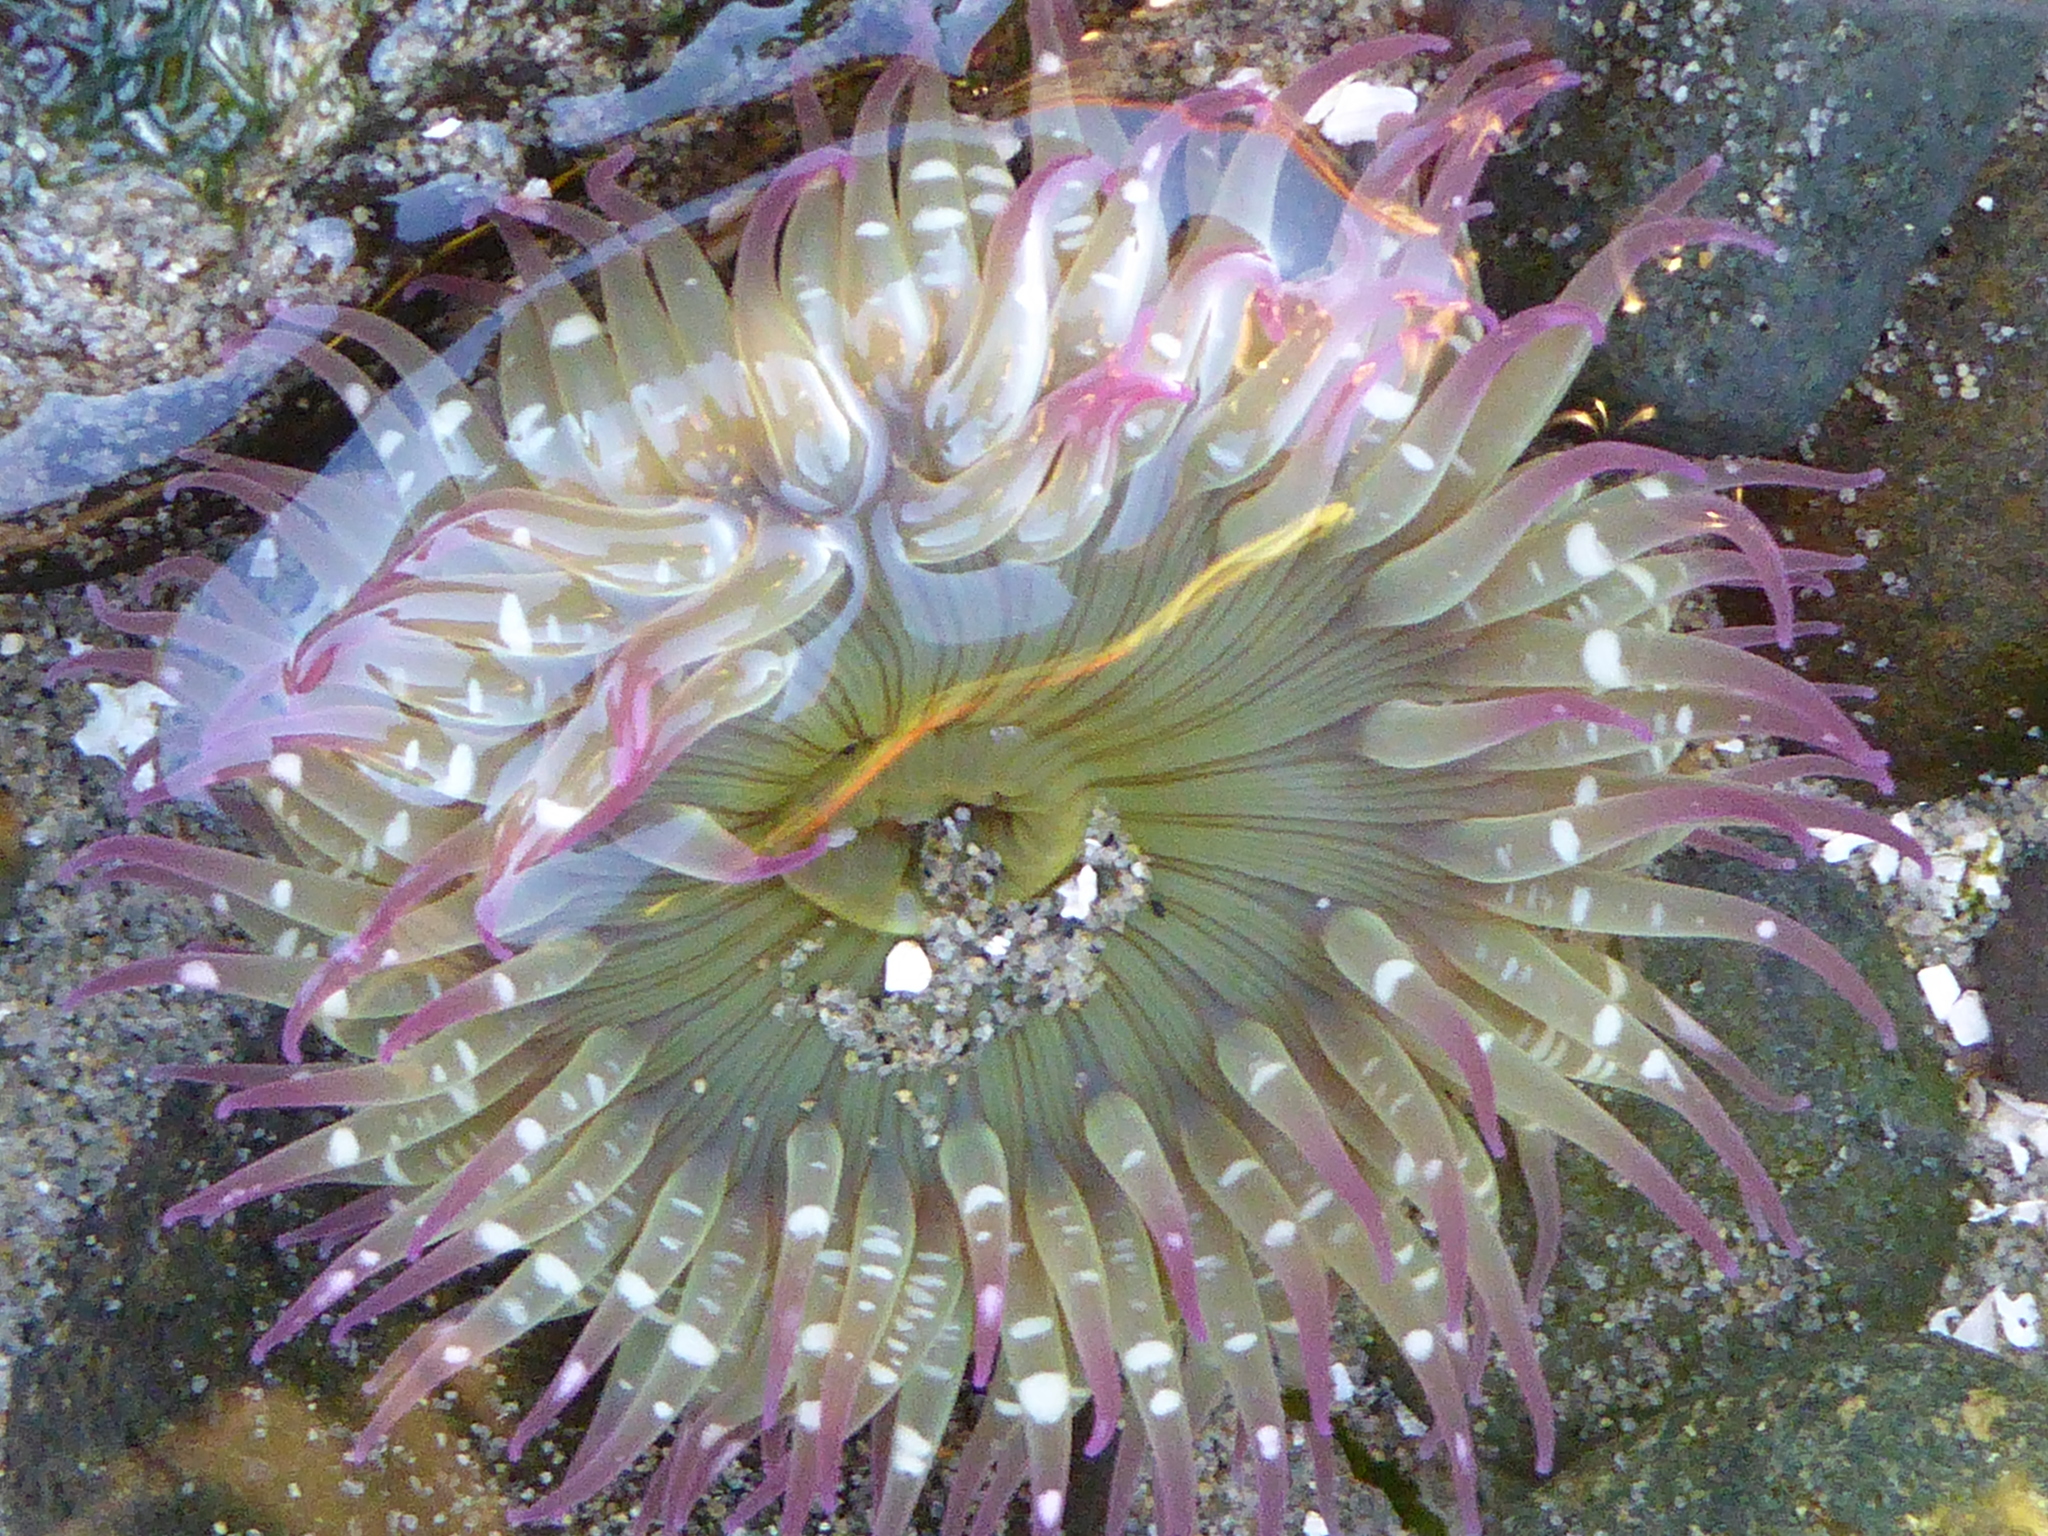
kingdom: Animalia
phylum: Cnidaria
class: Anthozoa
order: Actiniaria
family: Actiniidae
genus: Anthopleura
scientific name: Anthopleura elegantissima
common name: Clonal anemone
